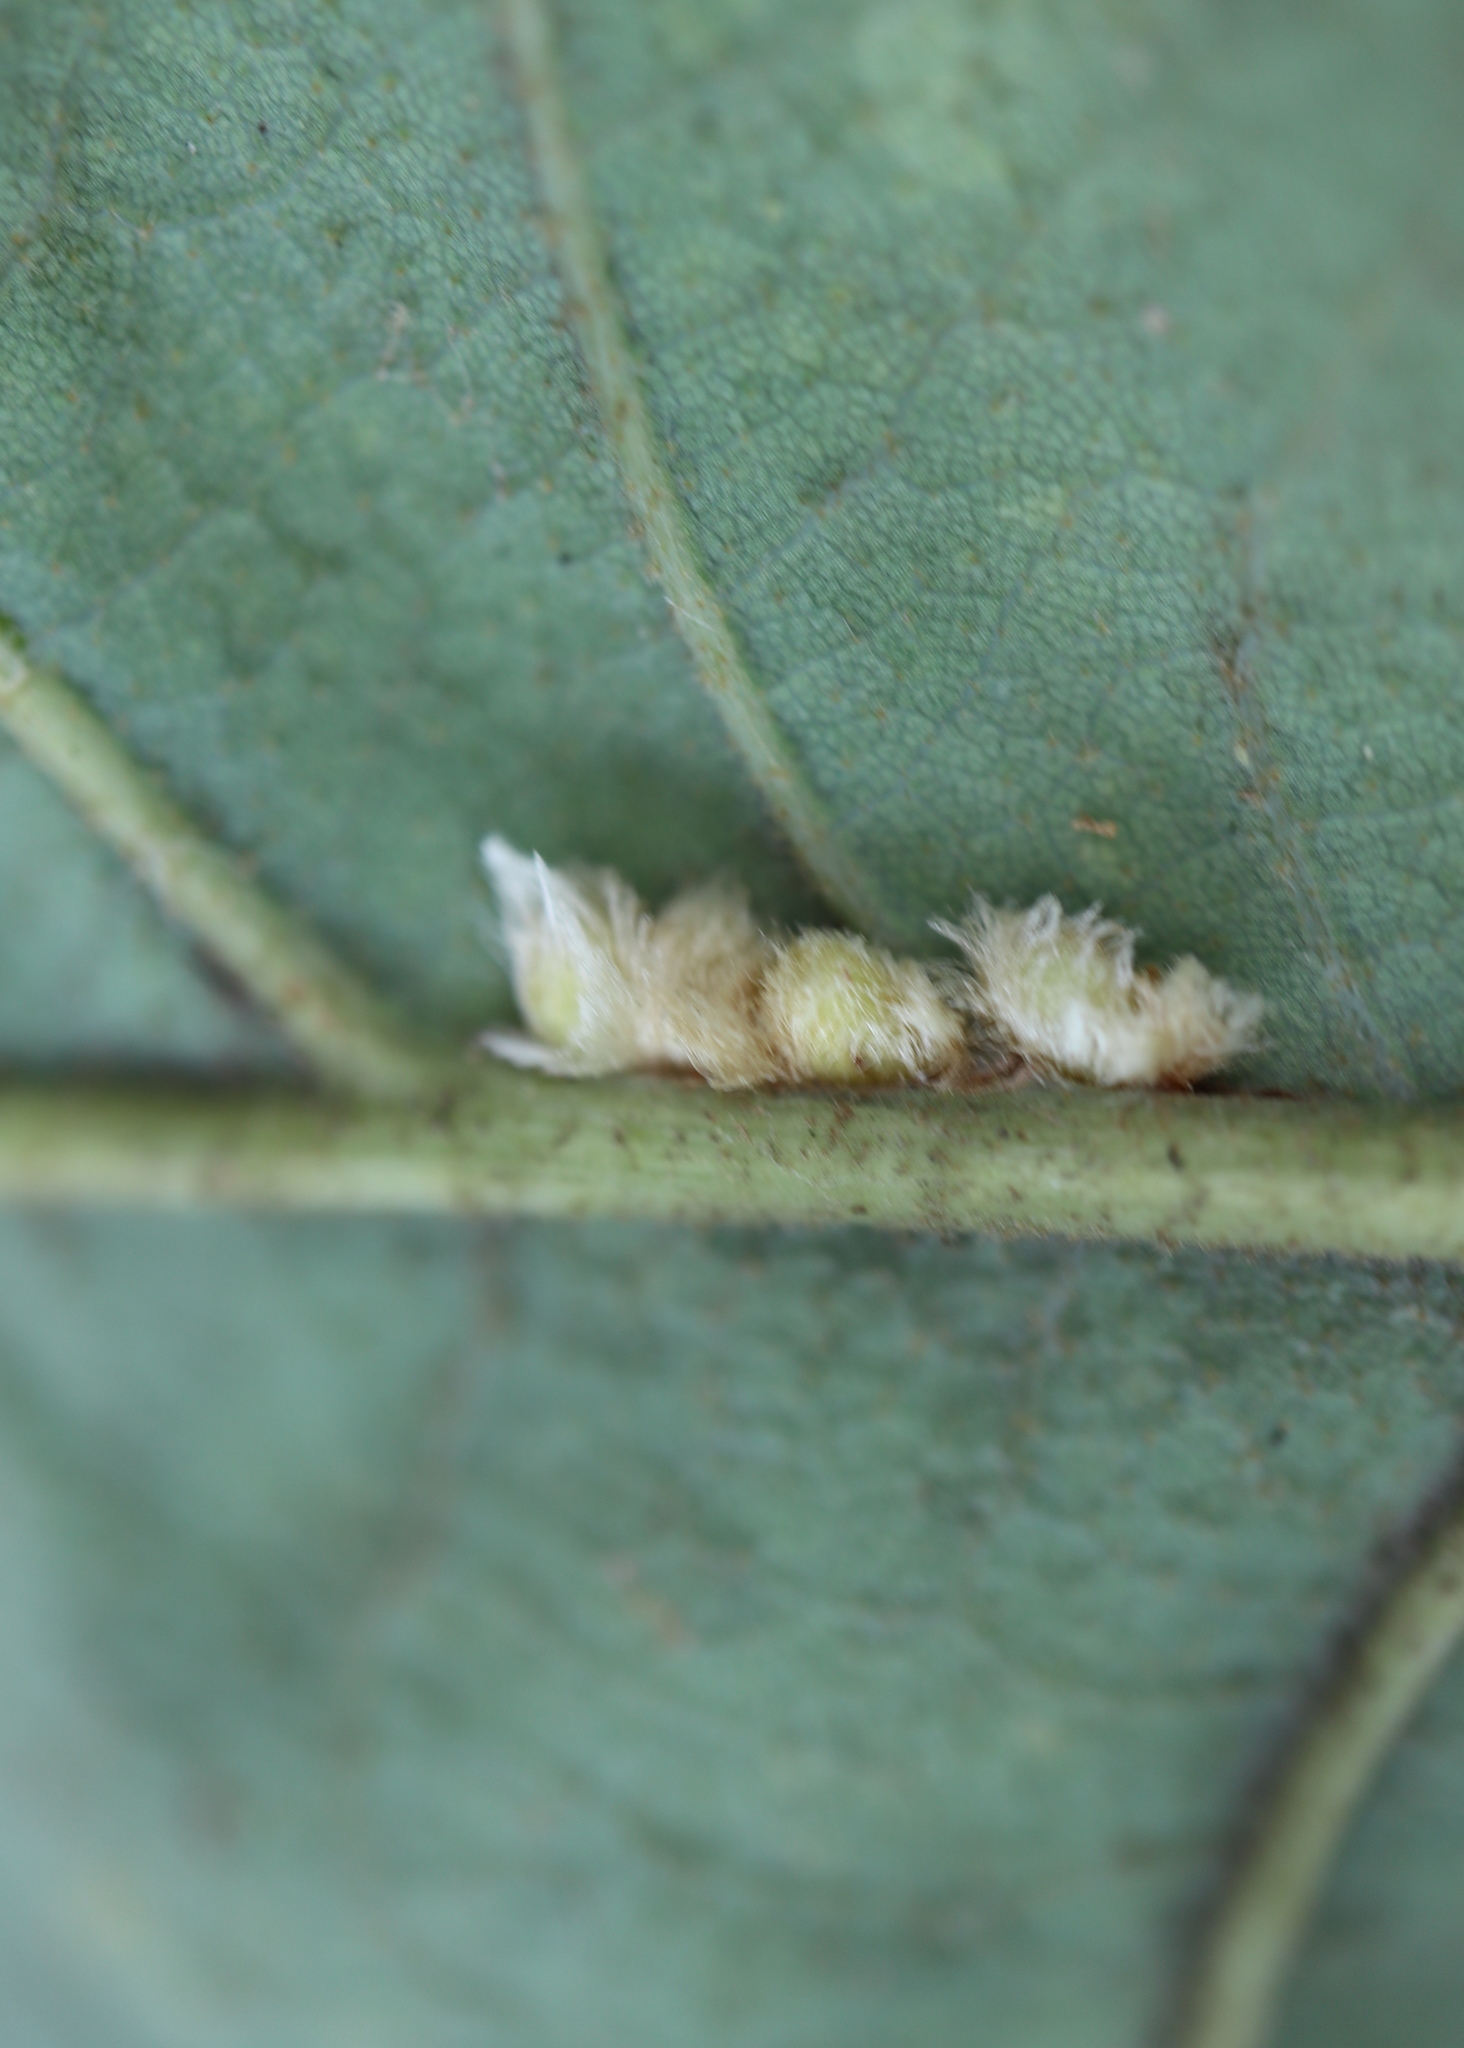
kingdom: Animalia
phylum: Arthropoda
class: Insecta
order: Hymenoptera
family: Cynipidae
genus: Andricus
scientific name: Andricus Druon pattoni
